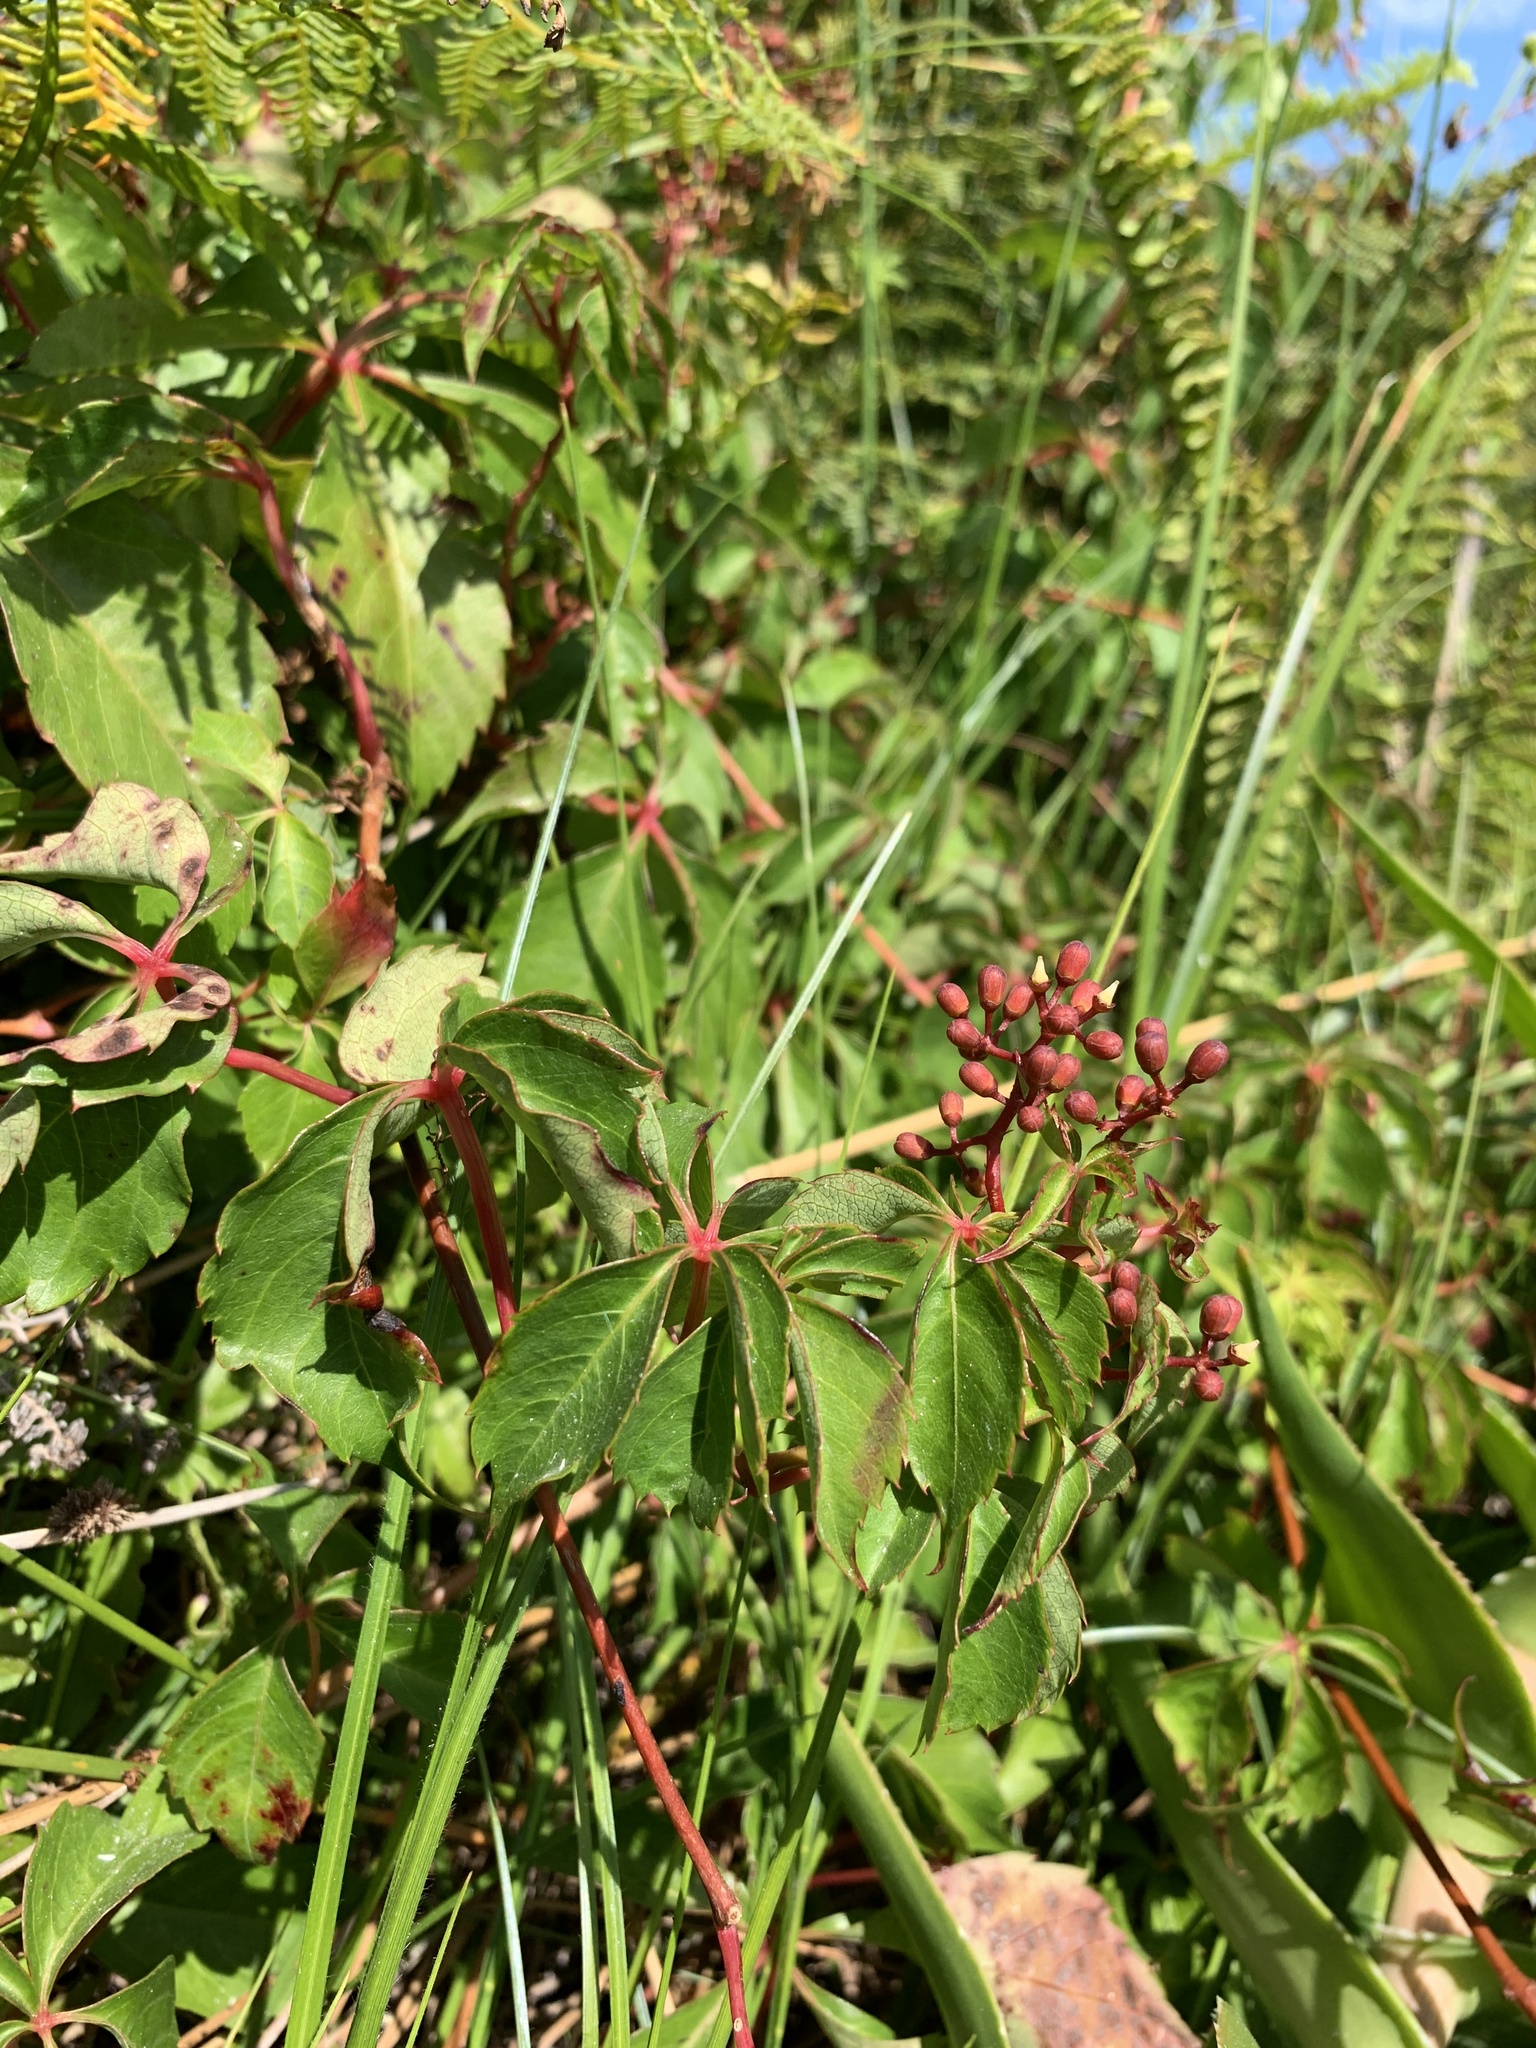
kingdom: Plantae
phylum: Tracheophyta
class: Magnoliopsida
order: Vitales
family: Vitaceae
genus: Parthenocissus
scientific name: Parthenocissus quinquefolia
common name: Virginia-creeper
